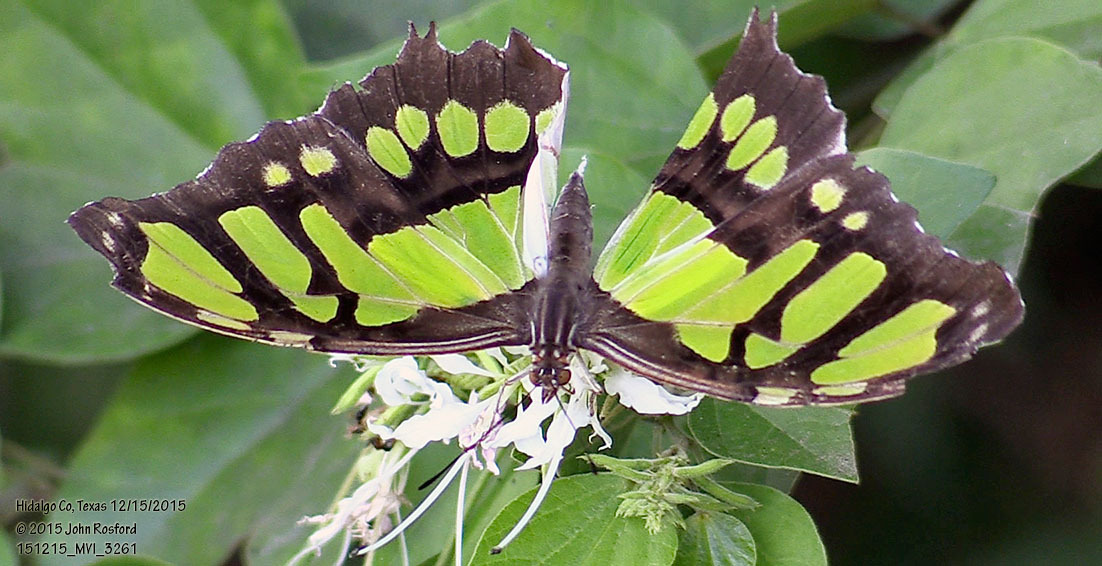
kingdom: Animalia
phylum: Arthropoda
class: Insecta
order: Lepidoptera
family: Nymphalidae
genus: Siproeta
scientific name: Siproeta stelenes
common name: Malachite
